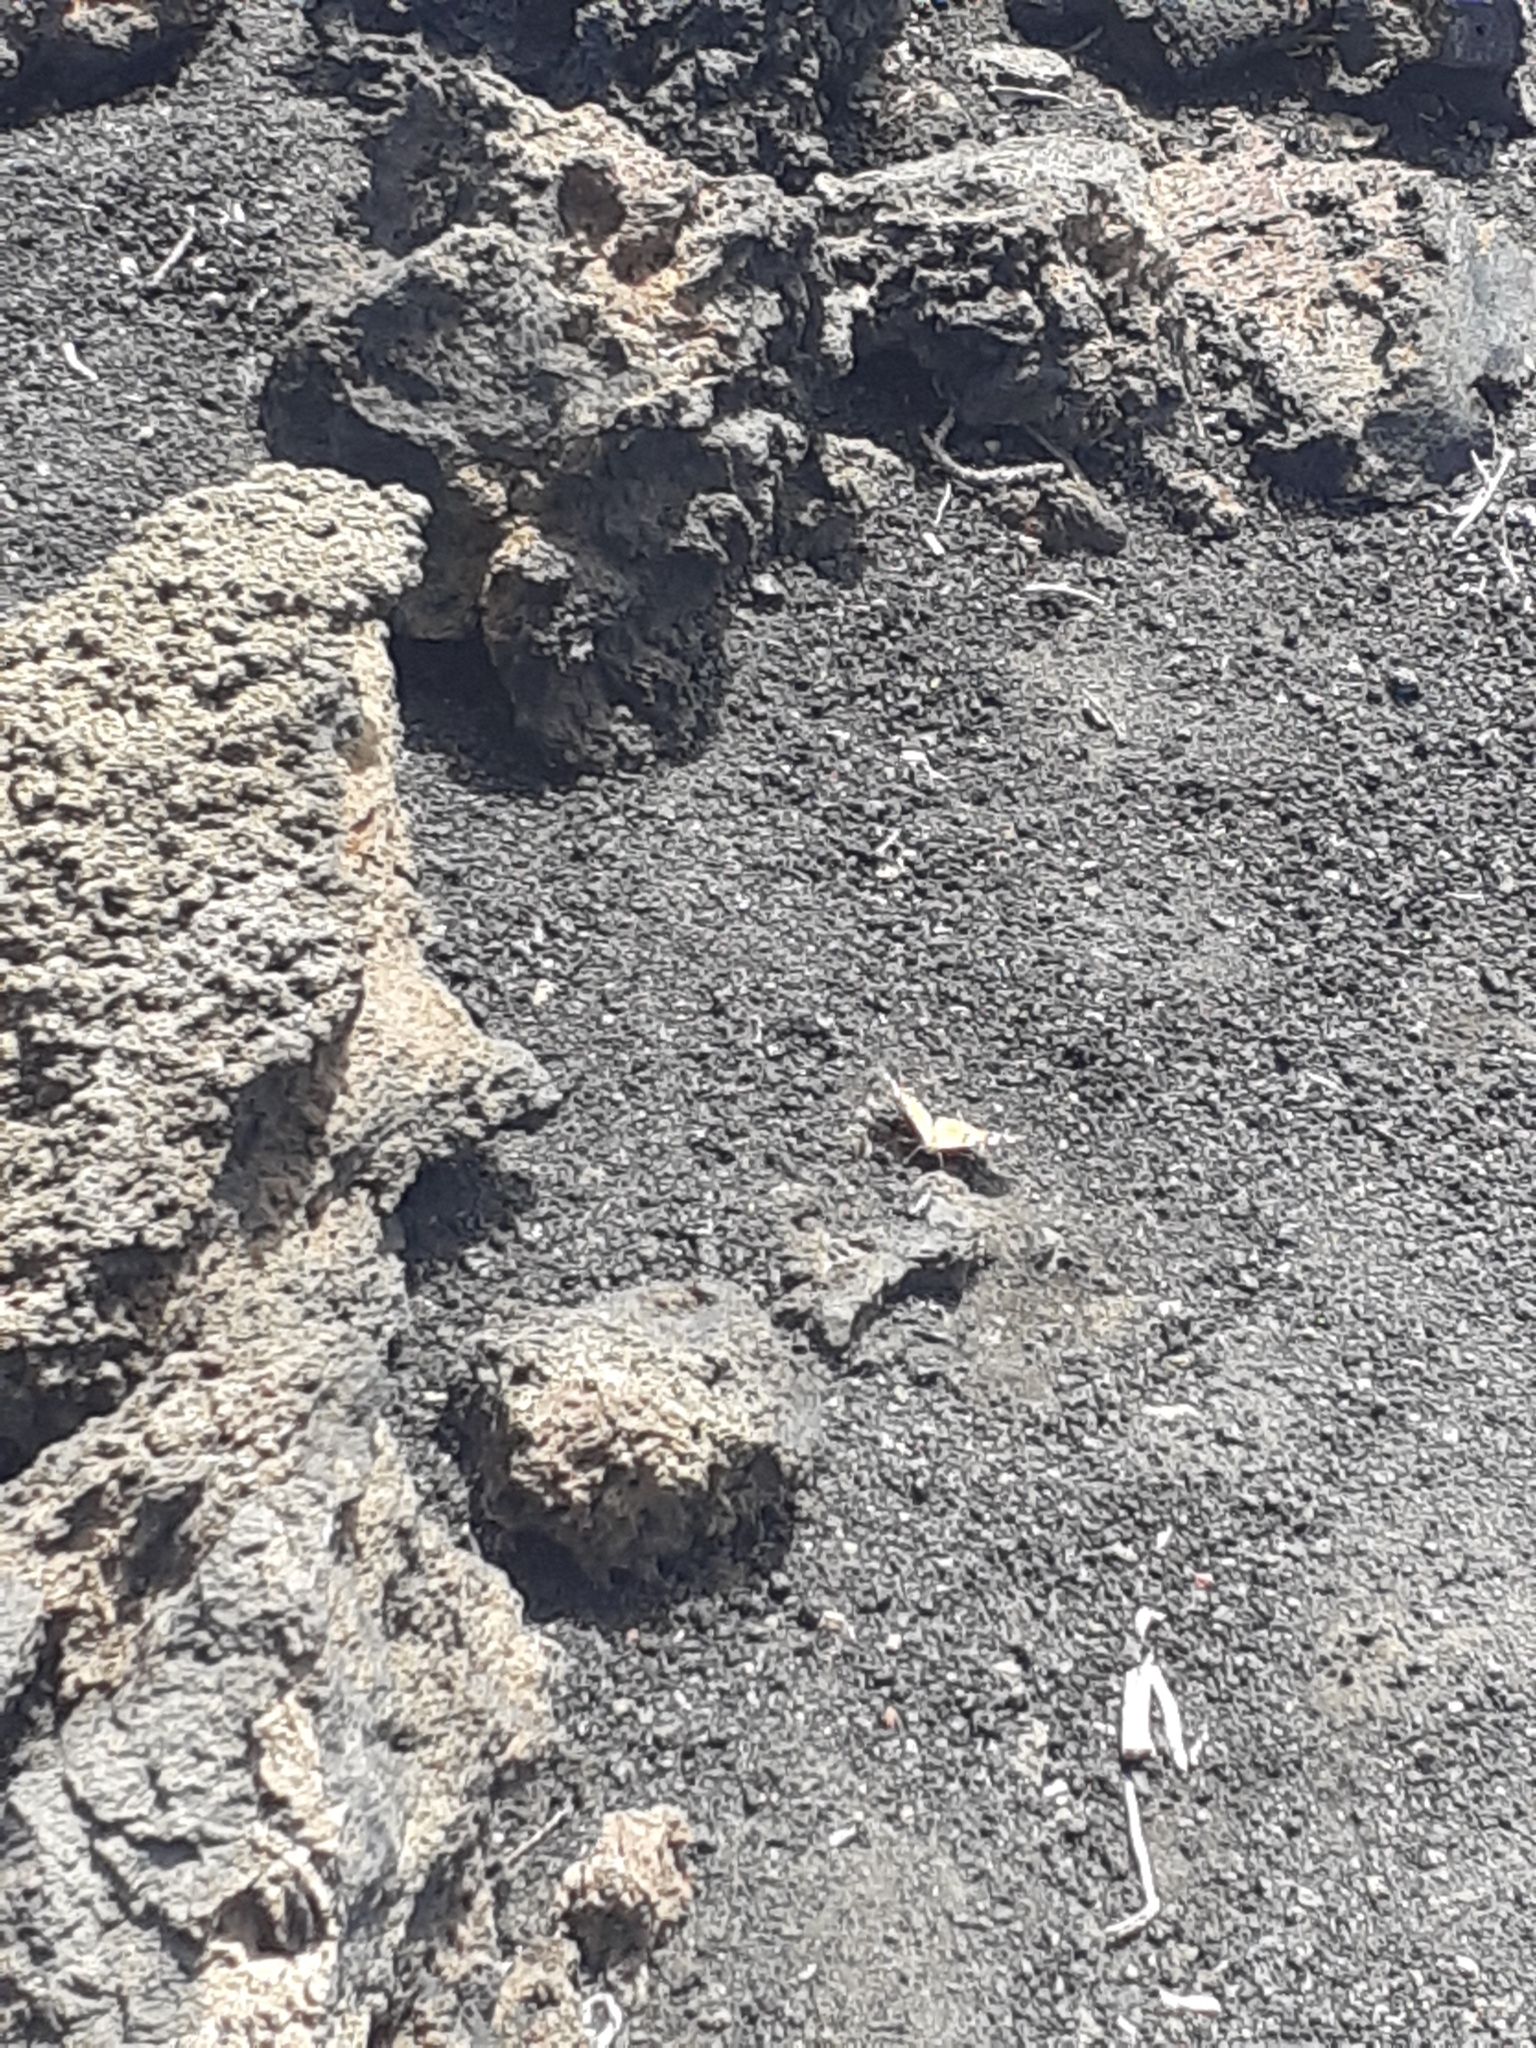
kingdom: Animalia
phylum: Arthropoda
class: Insecta
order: Lepidoptera
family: Nymphalidae
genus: Vanessa
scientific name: Vanessa cardui
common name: Painted lady
